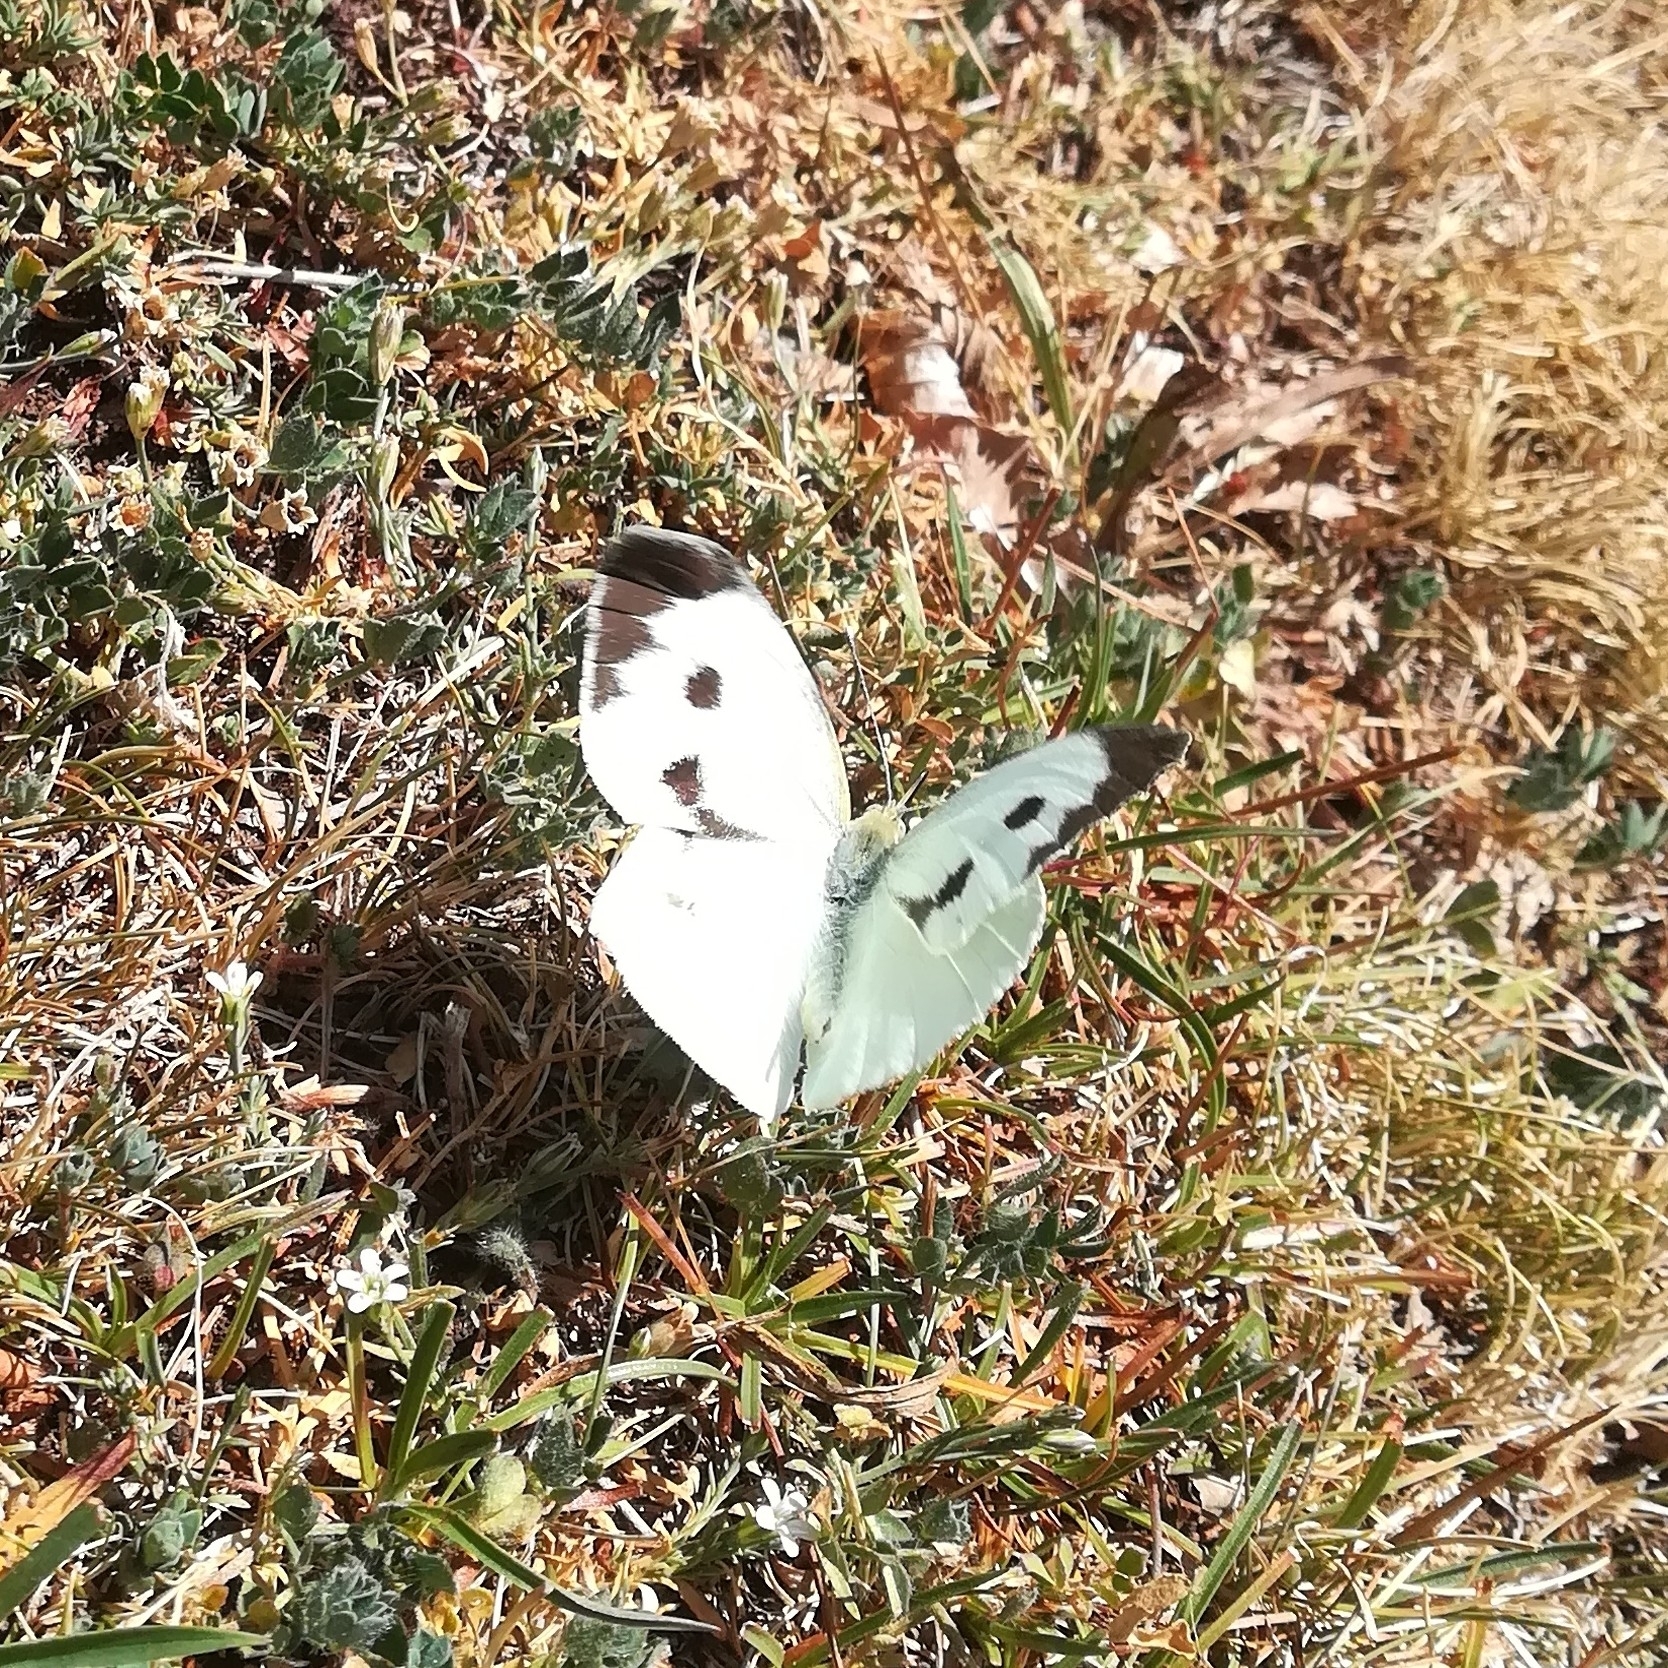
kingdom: Animalia
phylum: Arthropoda
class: Insecta
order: Lepidoptera
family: Pieridae
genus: Pieris
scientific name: Pieris brassicae
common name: Large white
